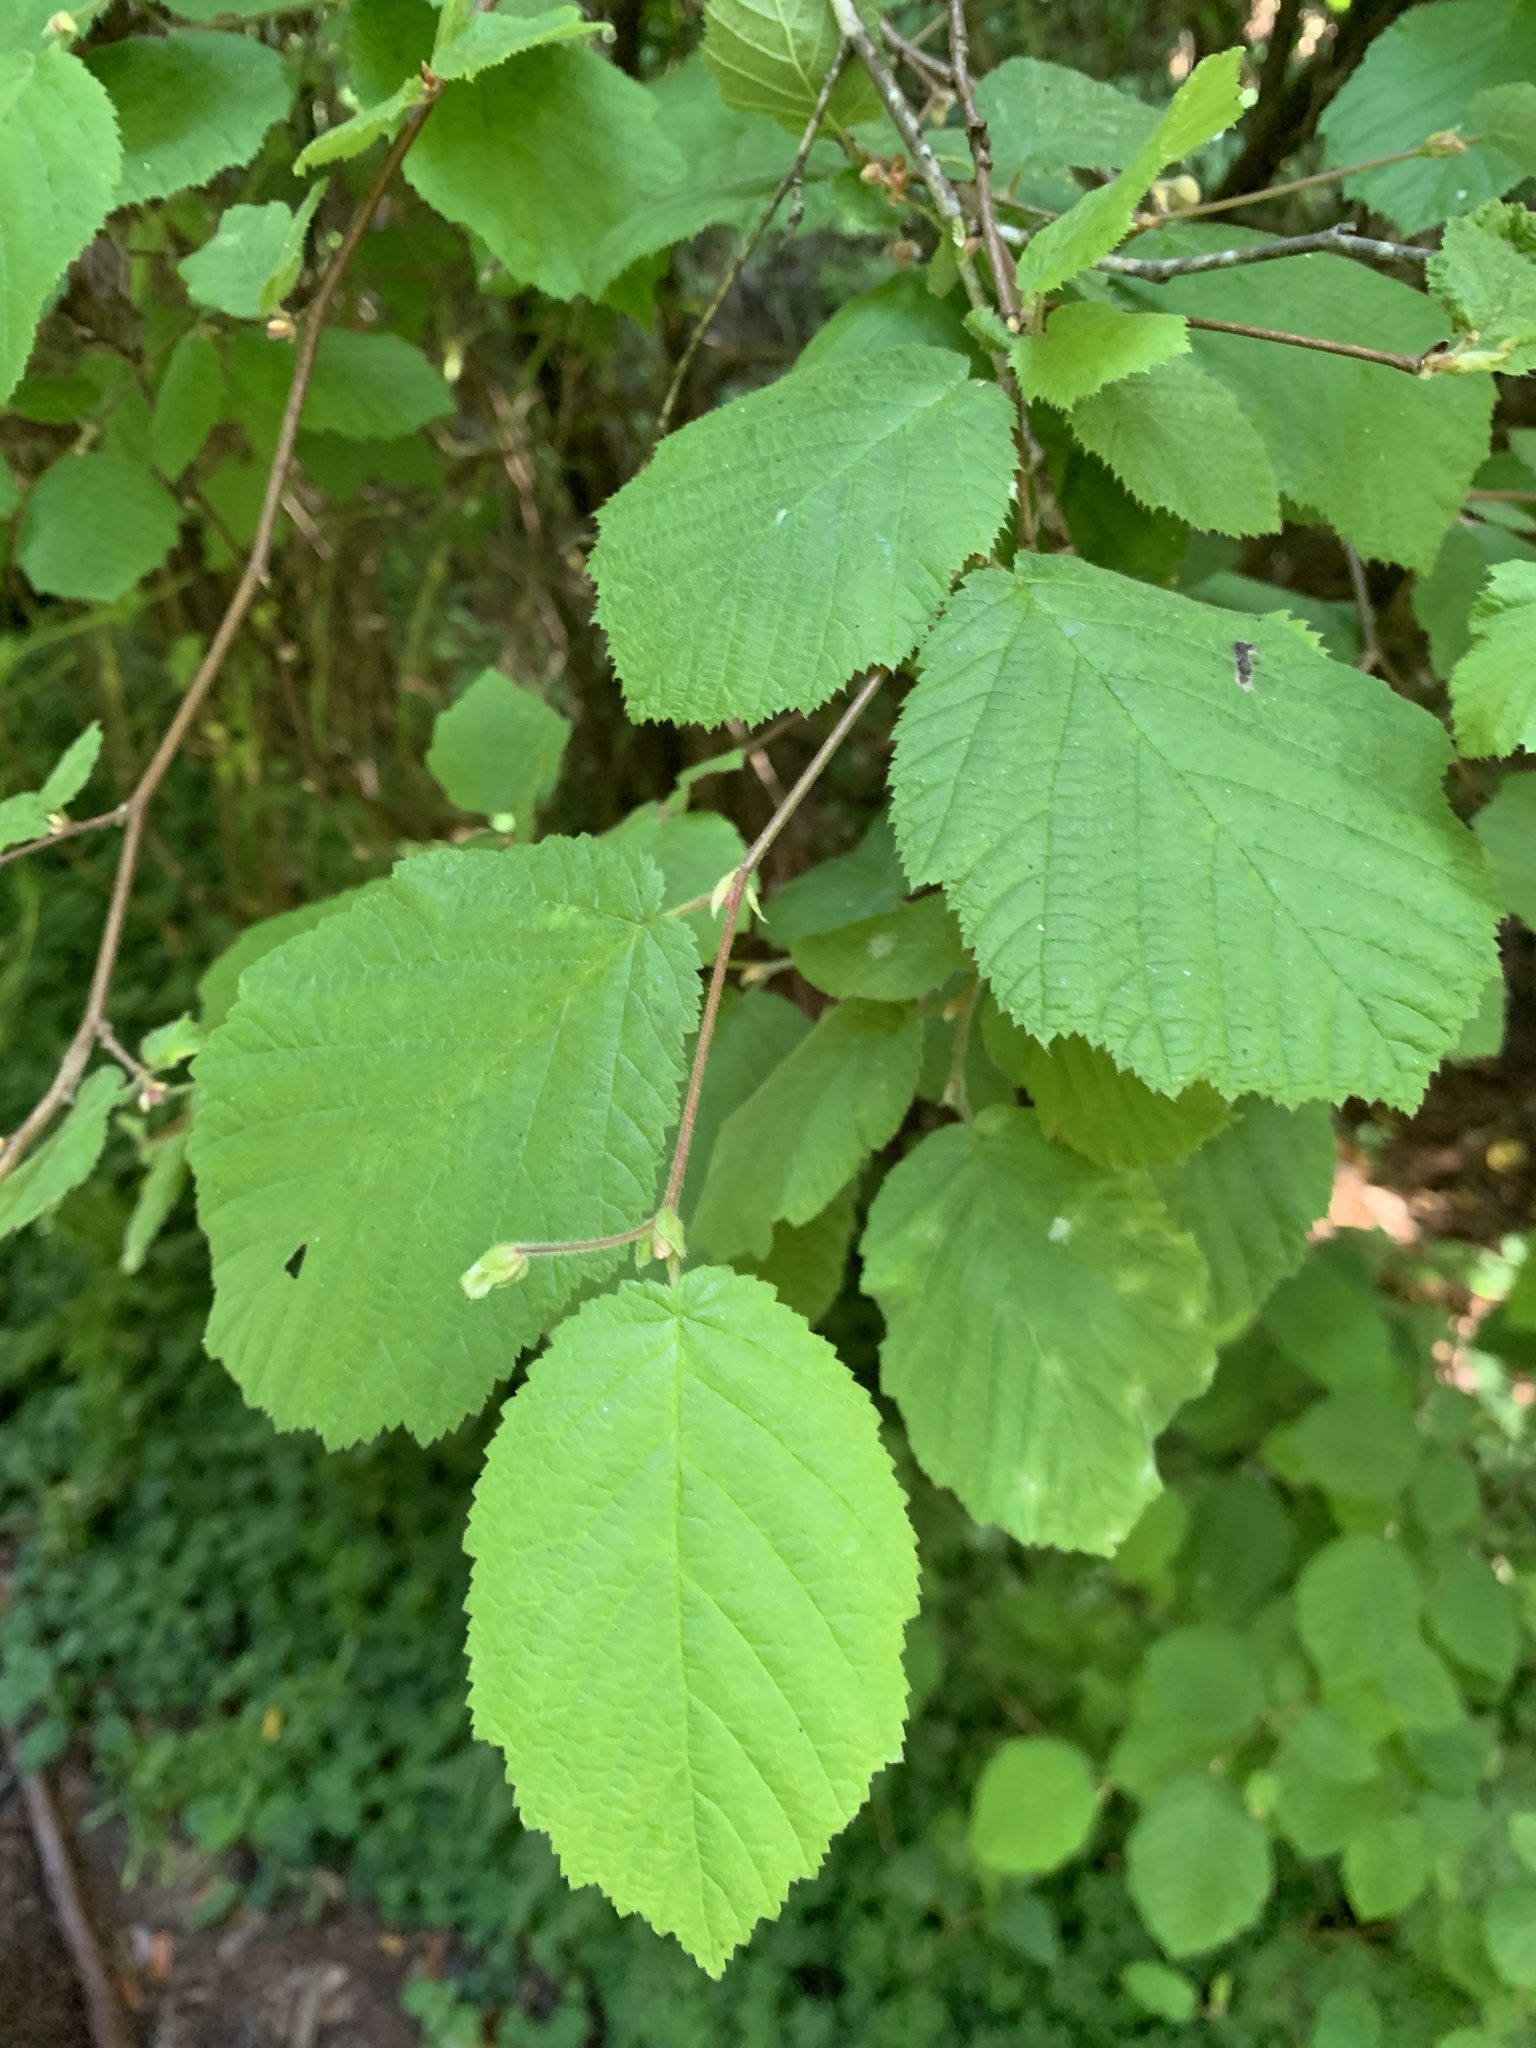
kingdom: Plantae
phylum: Tracheophyta
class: Magnoliopsida
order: Fagales
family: Betulaceae
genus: Corylus
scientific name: Corylus cornuta
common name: Beaked hazel
